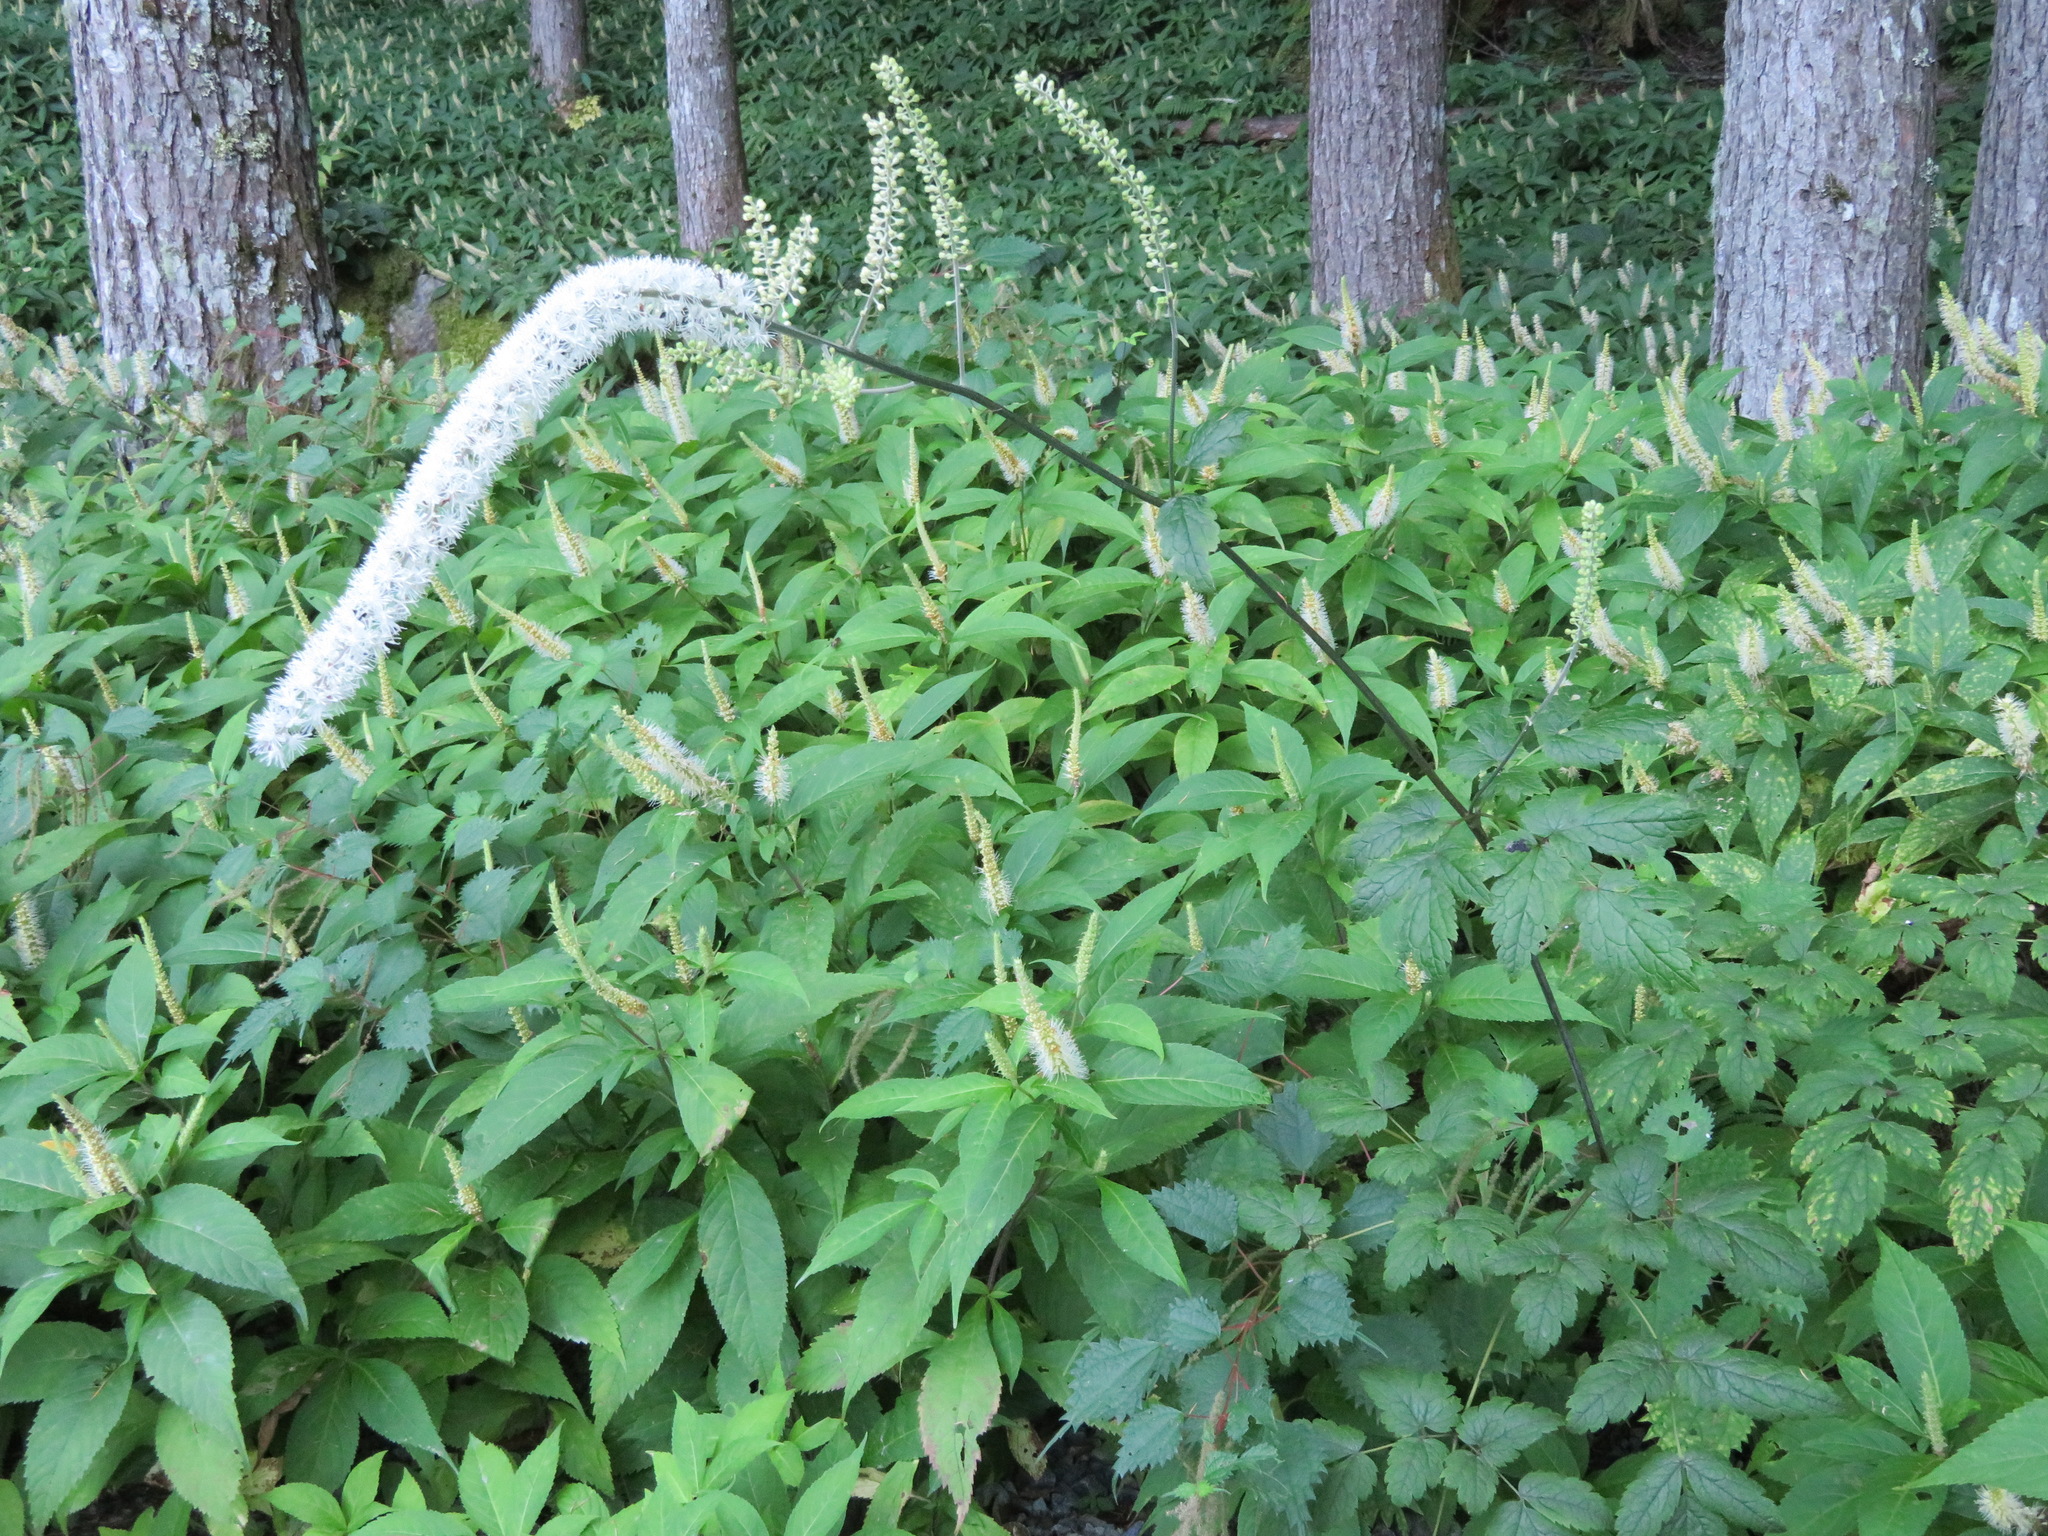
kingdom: Plantae
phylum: Tracheophyta
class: Magnoliopsida
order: Ranunculales
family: Ranunculaceae
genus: Actaea
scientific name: Actaea simplex
